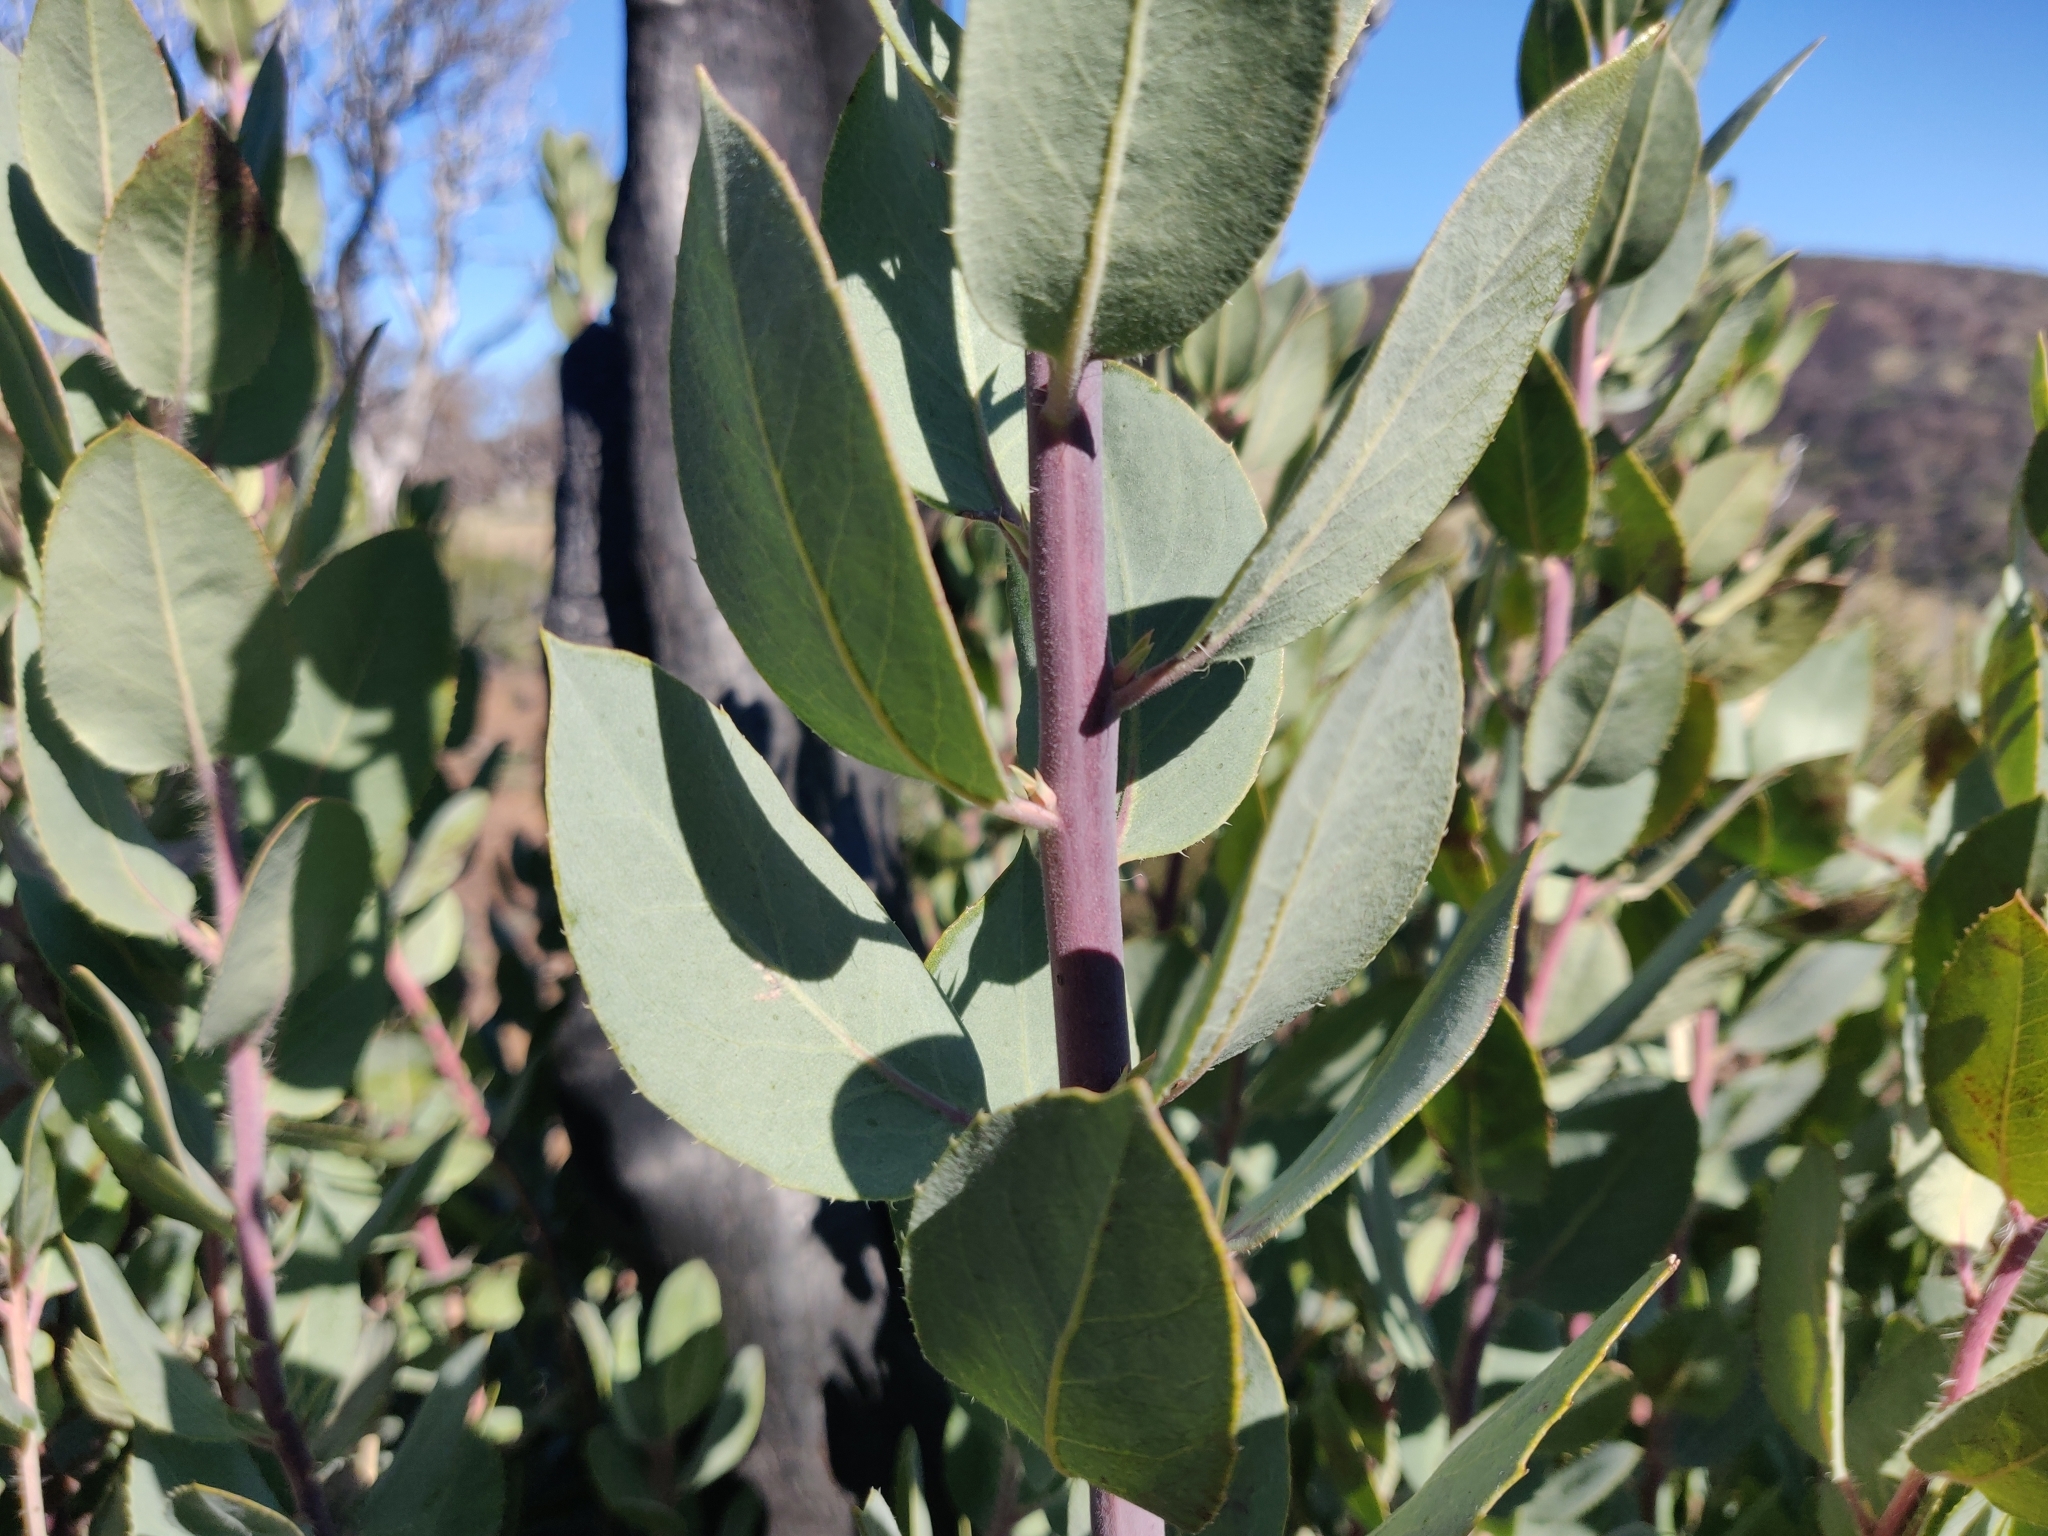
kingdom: Plantae
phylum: Tracheophyta
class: Magnoliopsida
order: Ericales
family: Ericaceae
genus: Arctostaphylos
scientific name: Arctostaphylos crustacea
